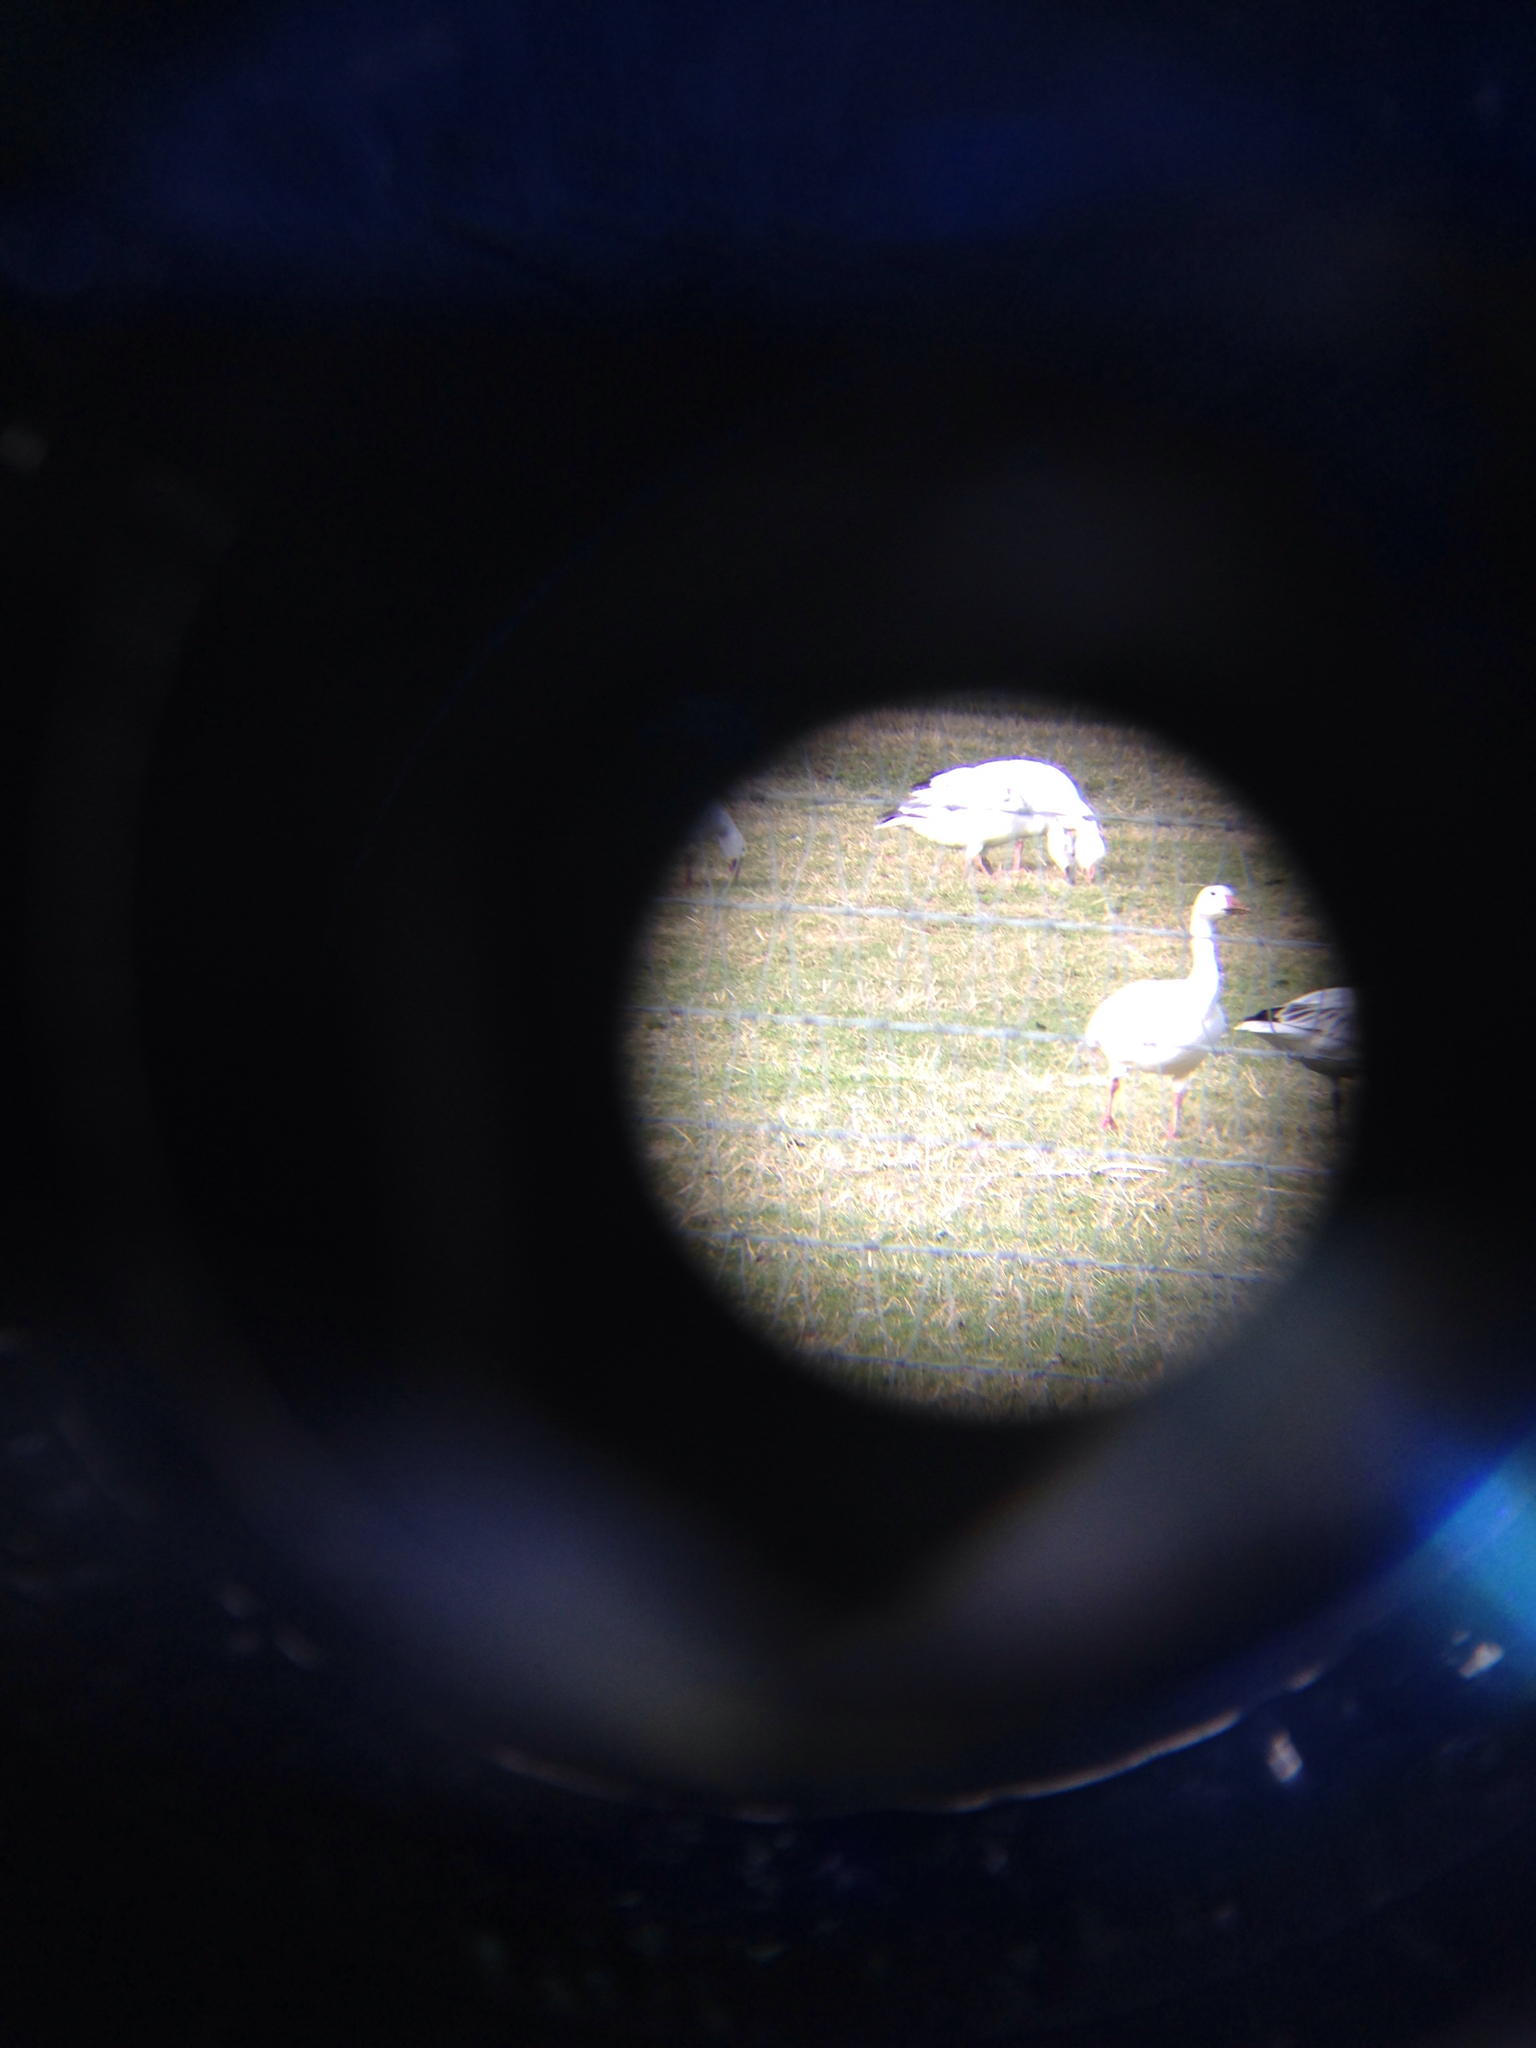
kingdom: Animalia
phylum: Chordata
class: Aves
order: Anseriformes
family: Anatidae
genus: Anser
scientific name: Anser caerulescens
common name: Snow goose
